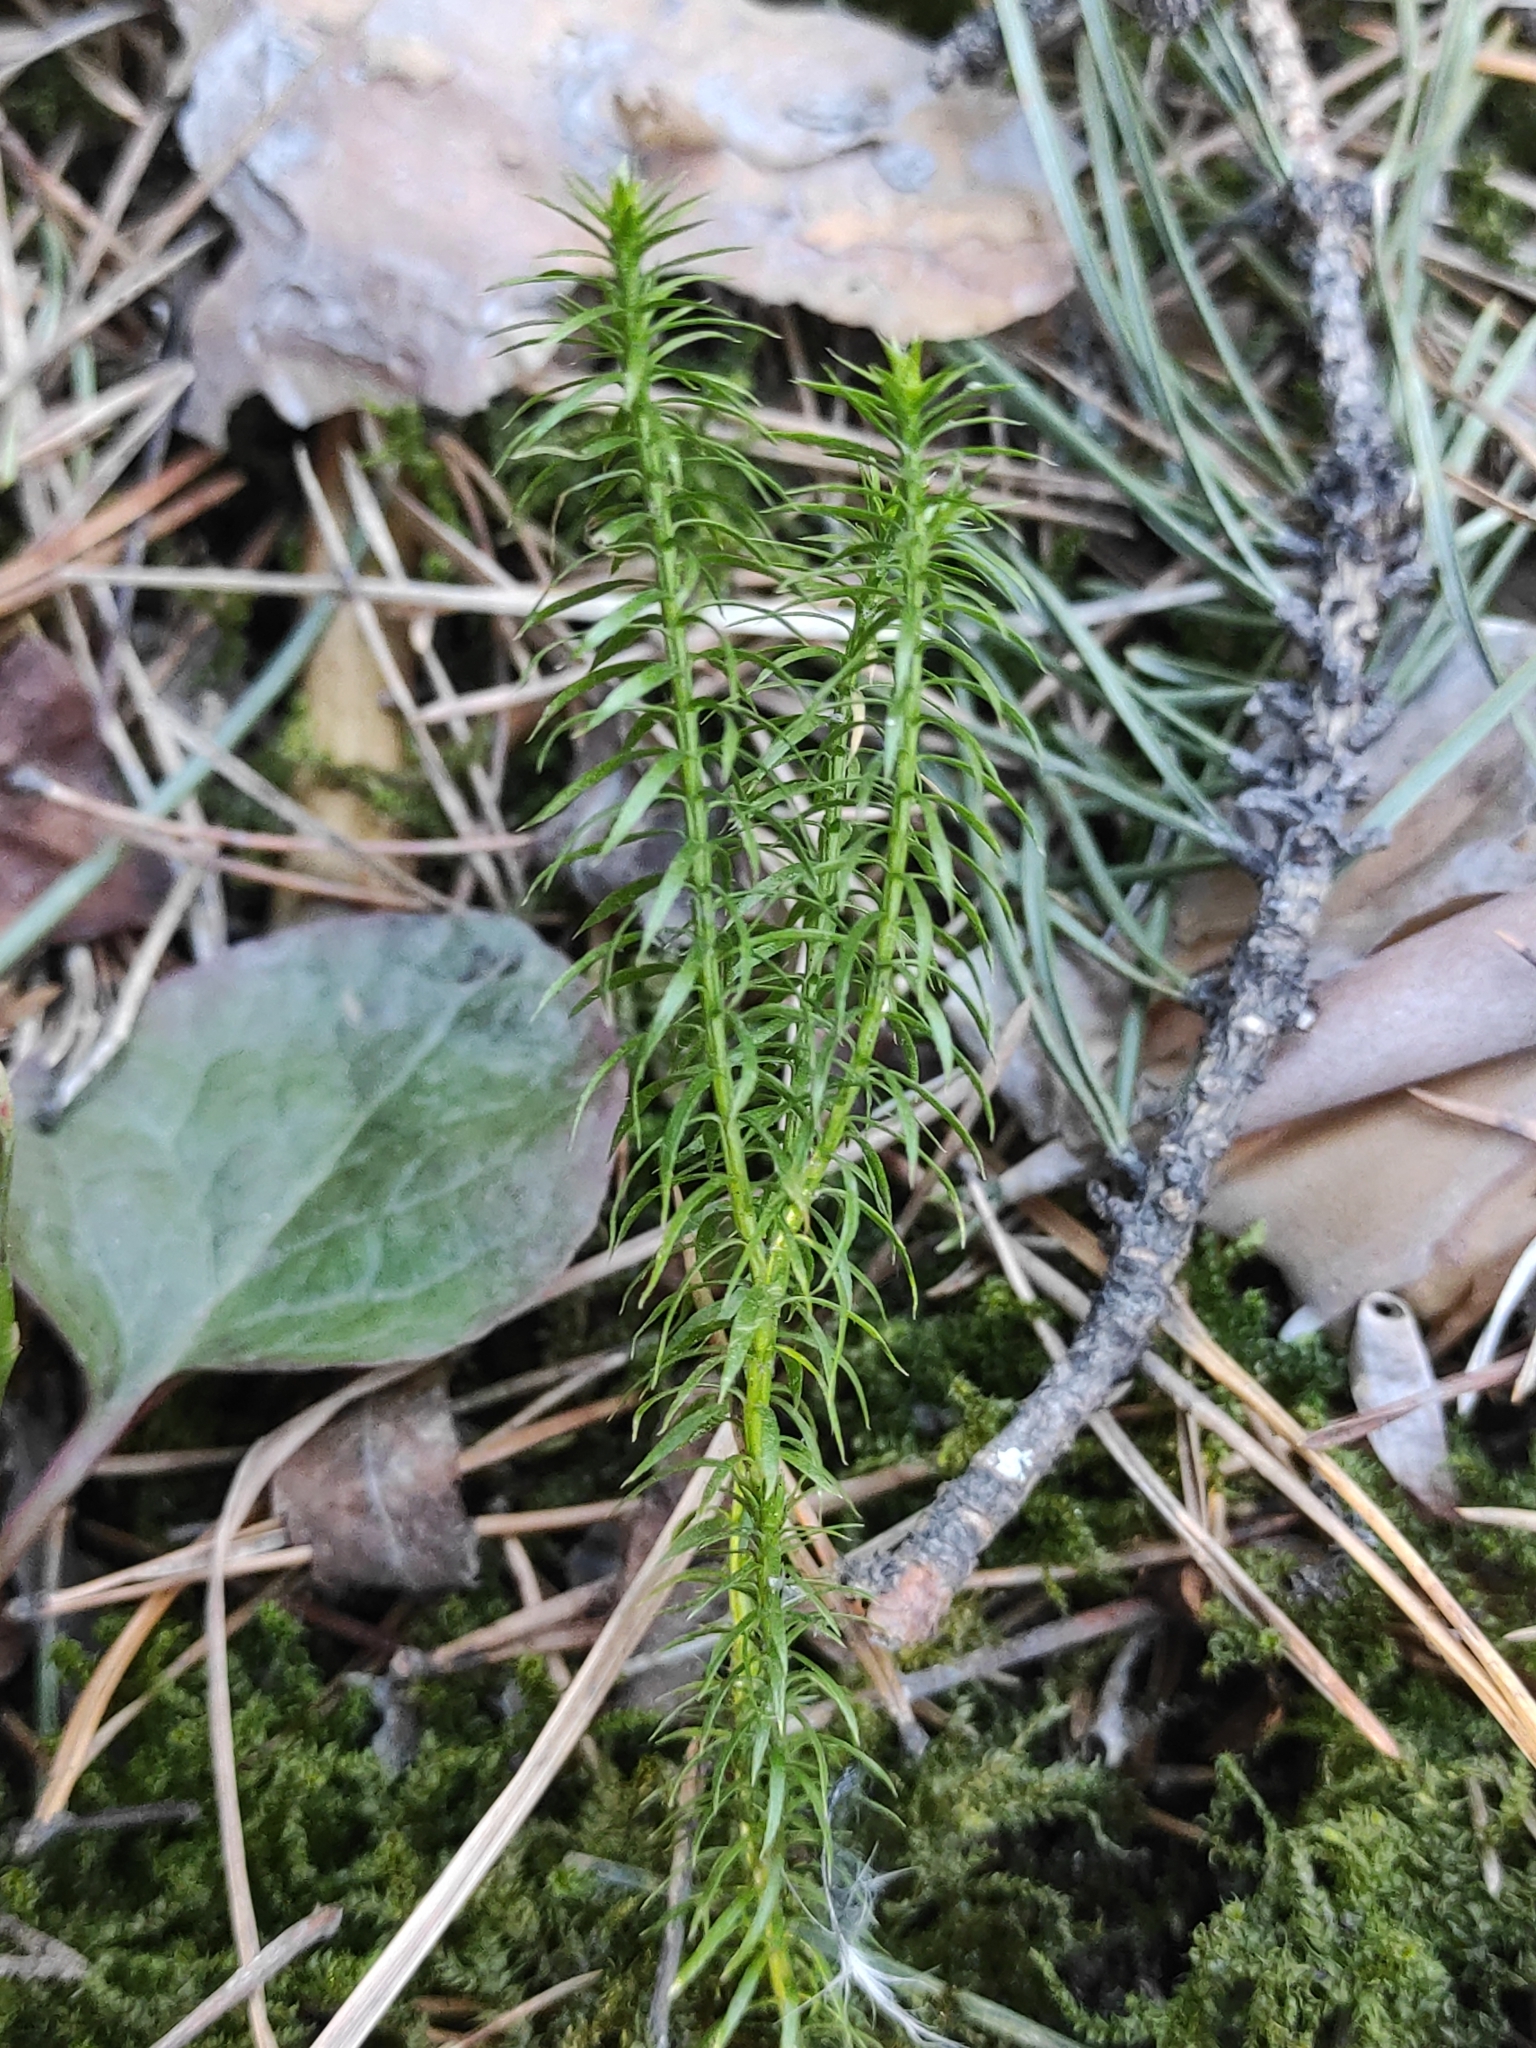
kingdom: Plantae
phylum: Tracheophyta
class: Lycopodiopsida
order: Lycopodiales
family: Lycopodiaceae
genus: Spinulum
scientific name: Spinulum annotinum
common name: Interrupted club-moss
